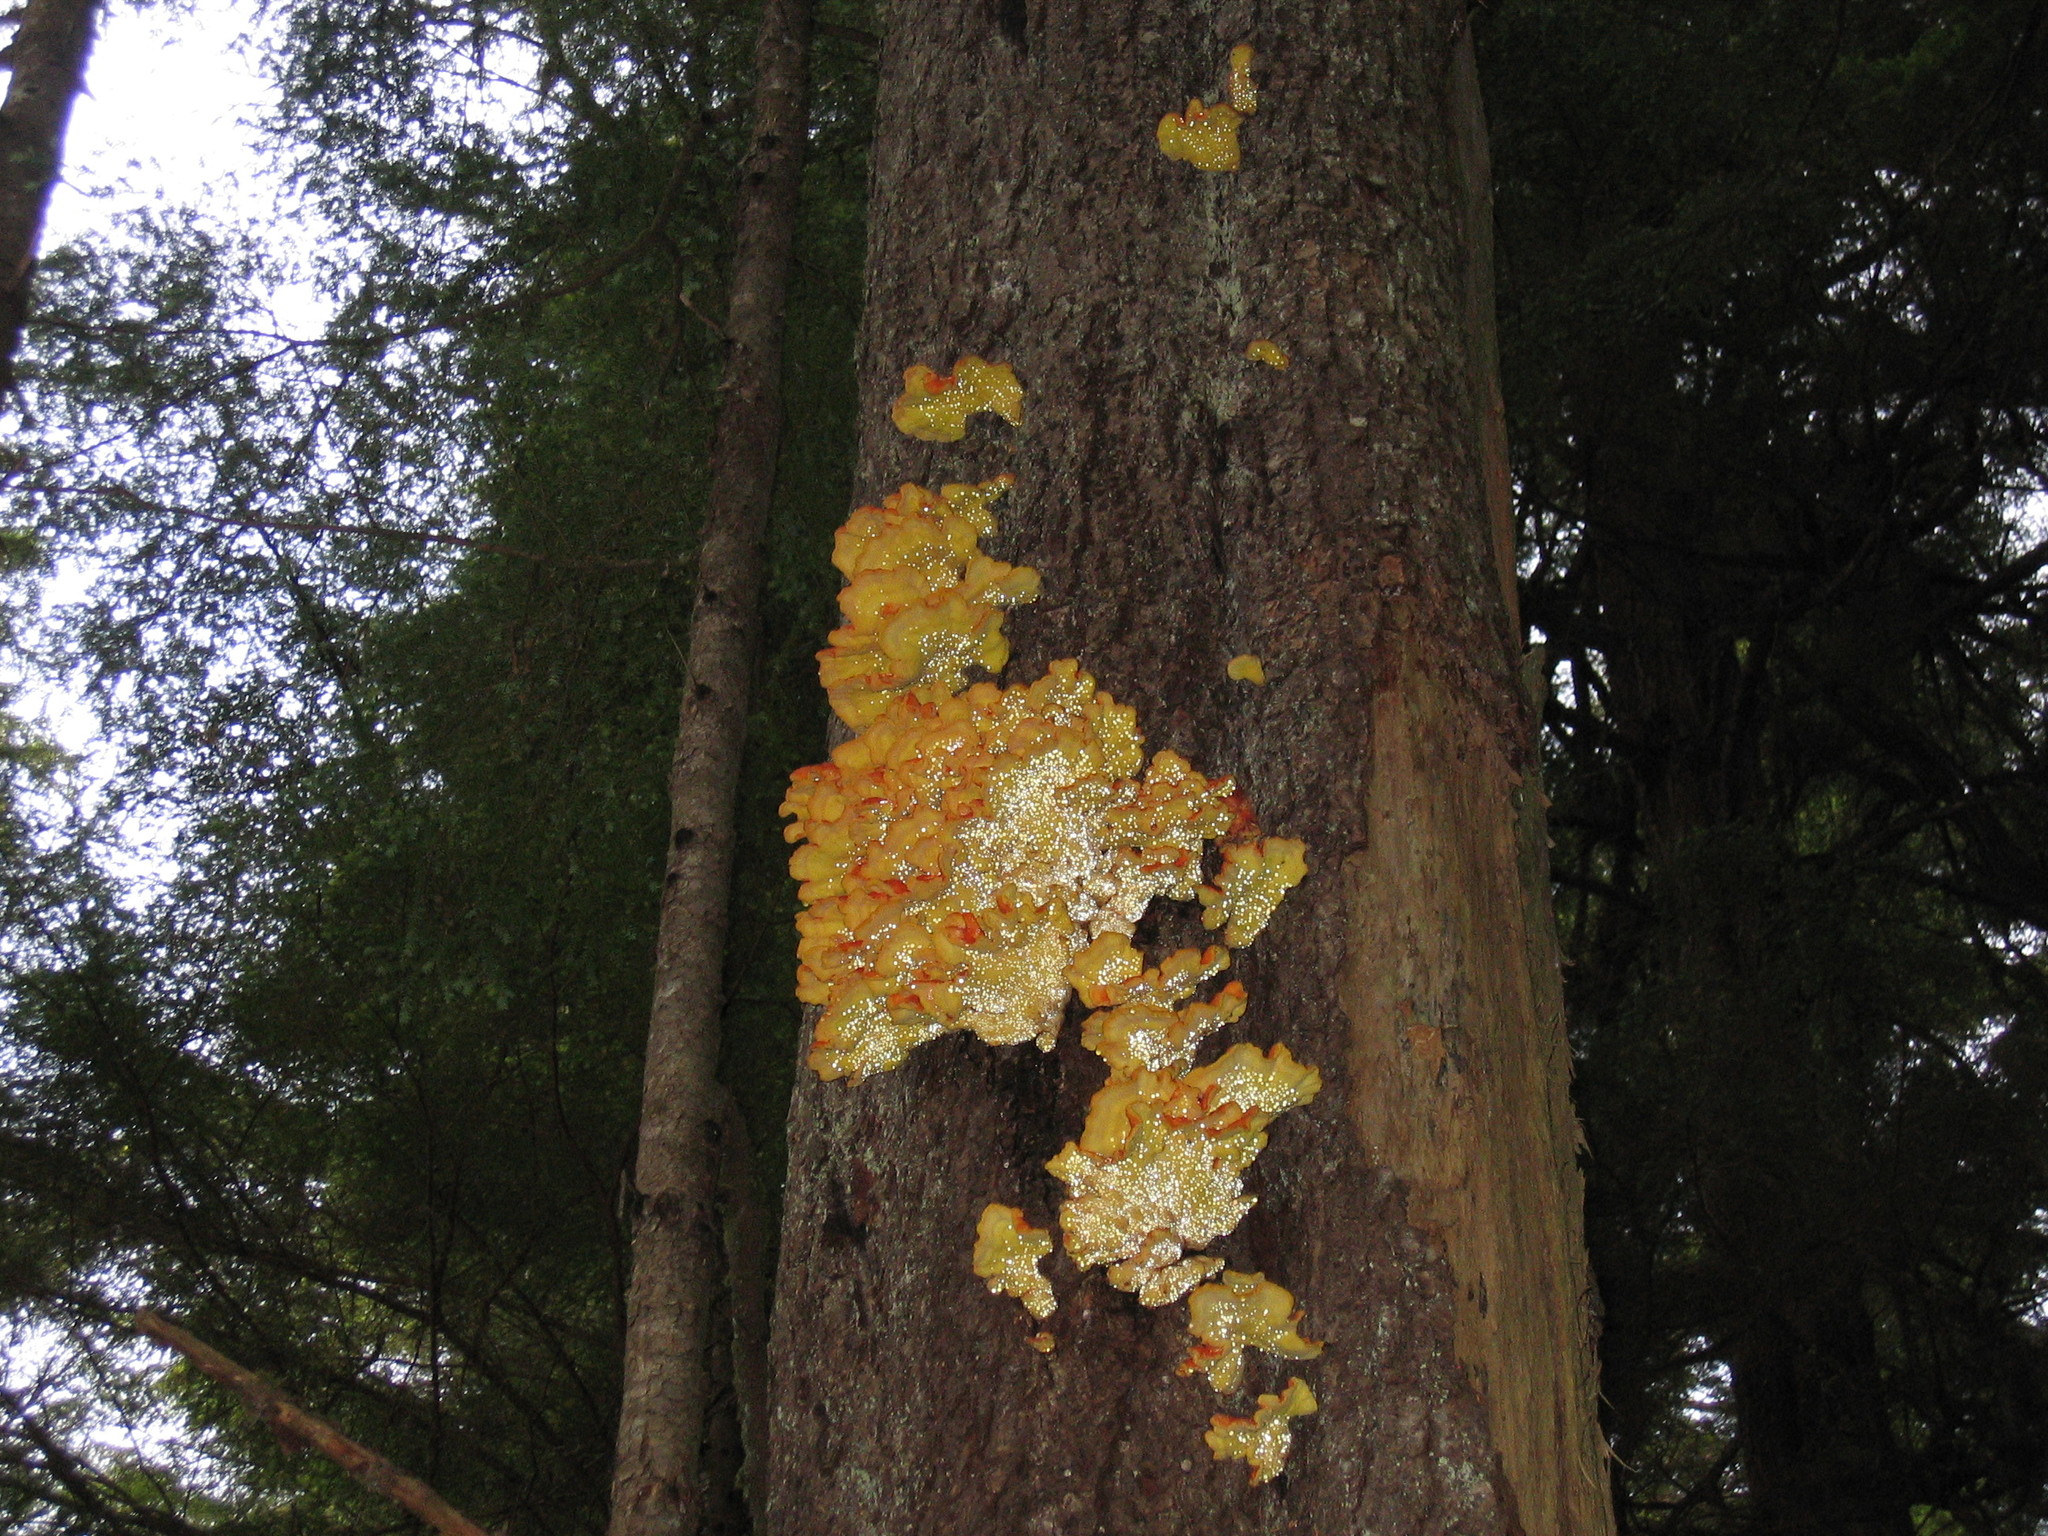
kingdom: Fungi
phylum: Basidiomycota
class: Agaricomycetes
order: Polyporales
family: Laetiporaceae
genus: Laetiporus
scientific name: Laetiporus conifericola
